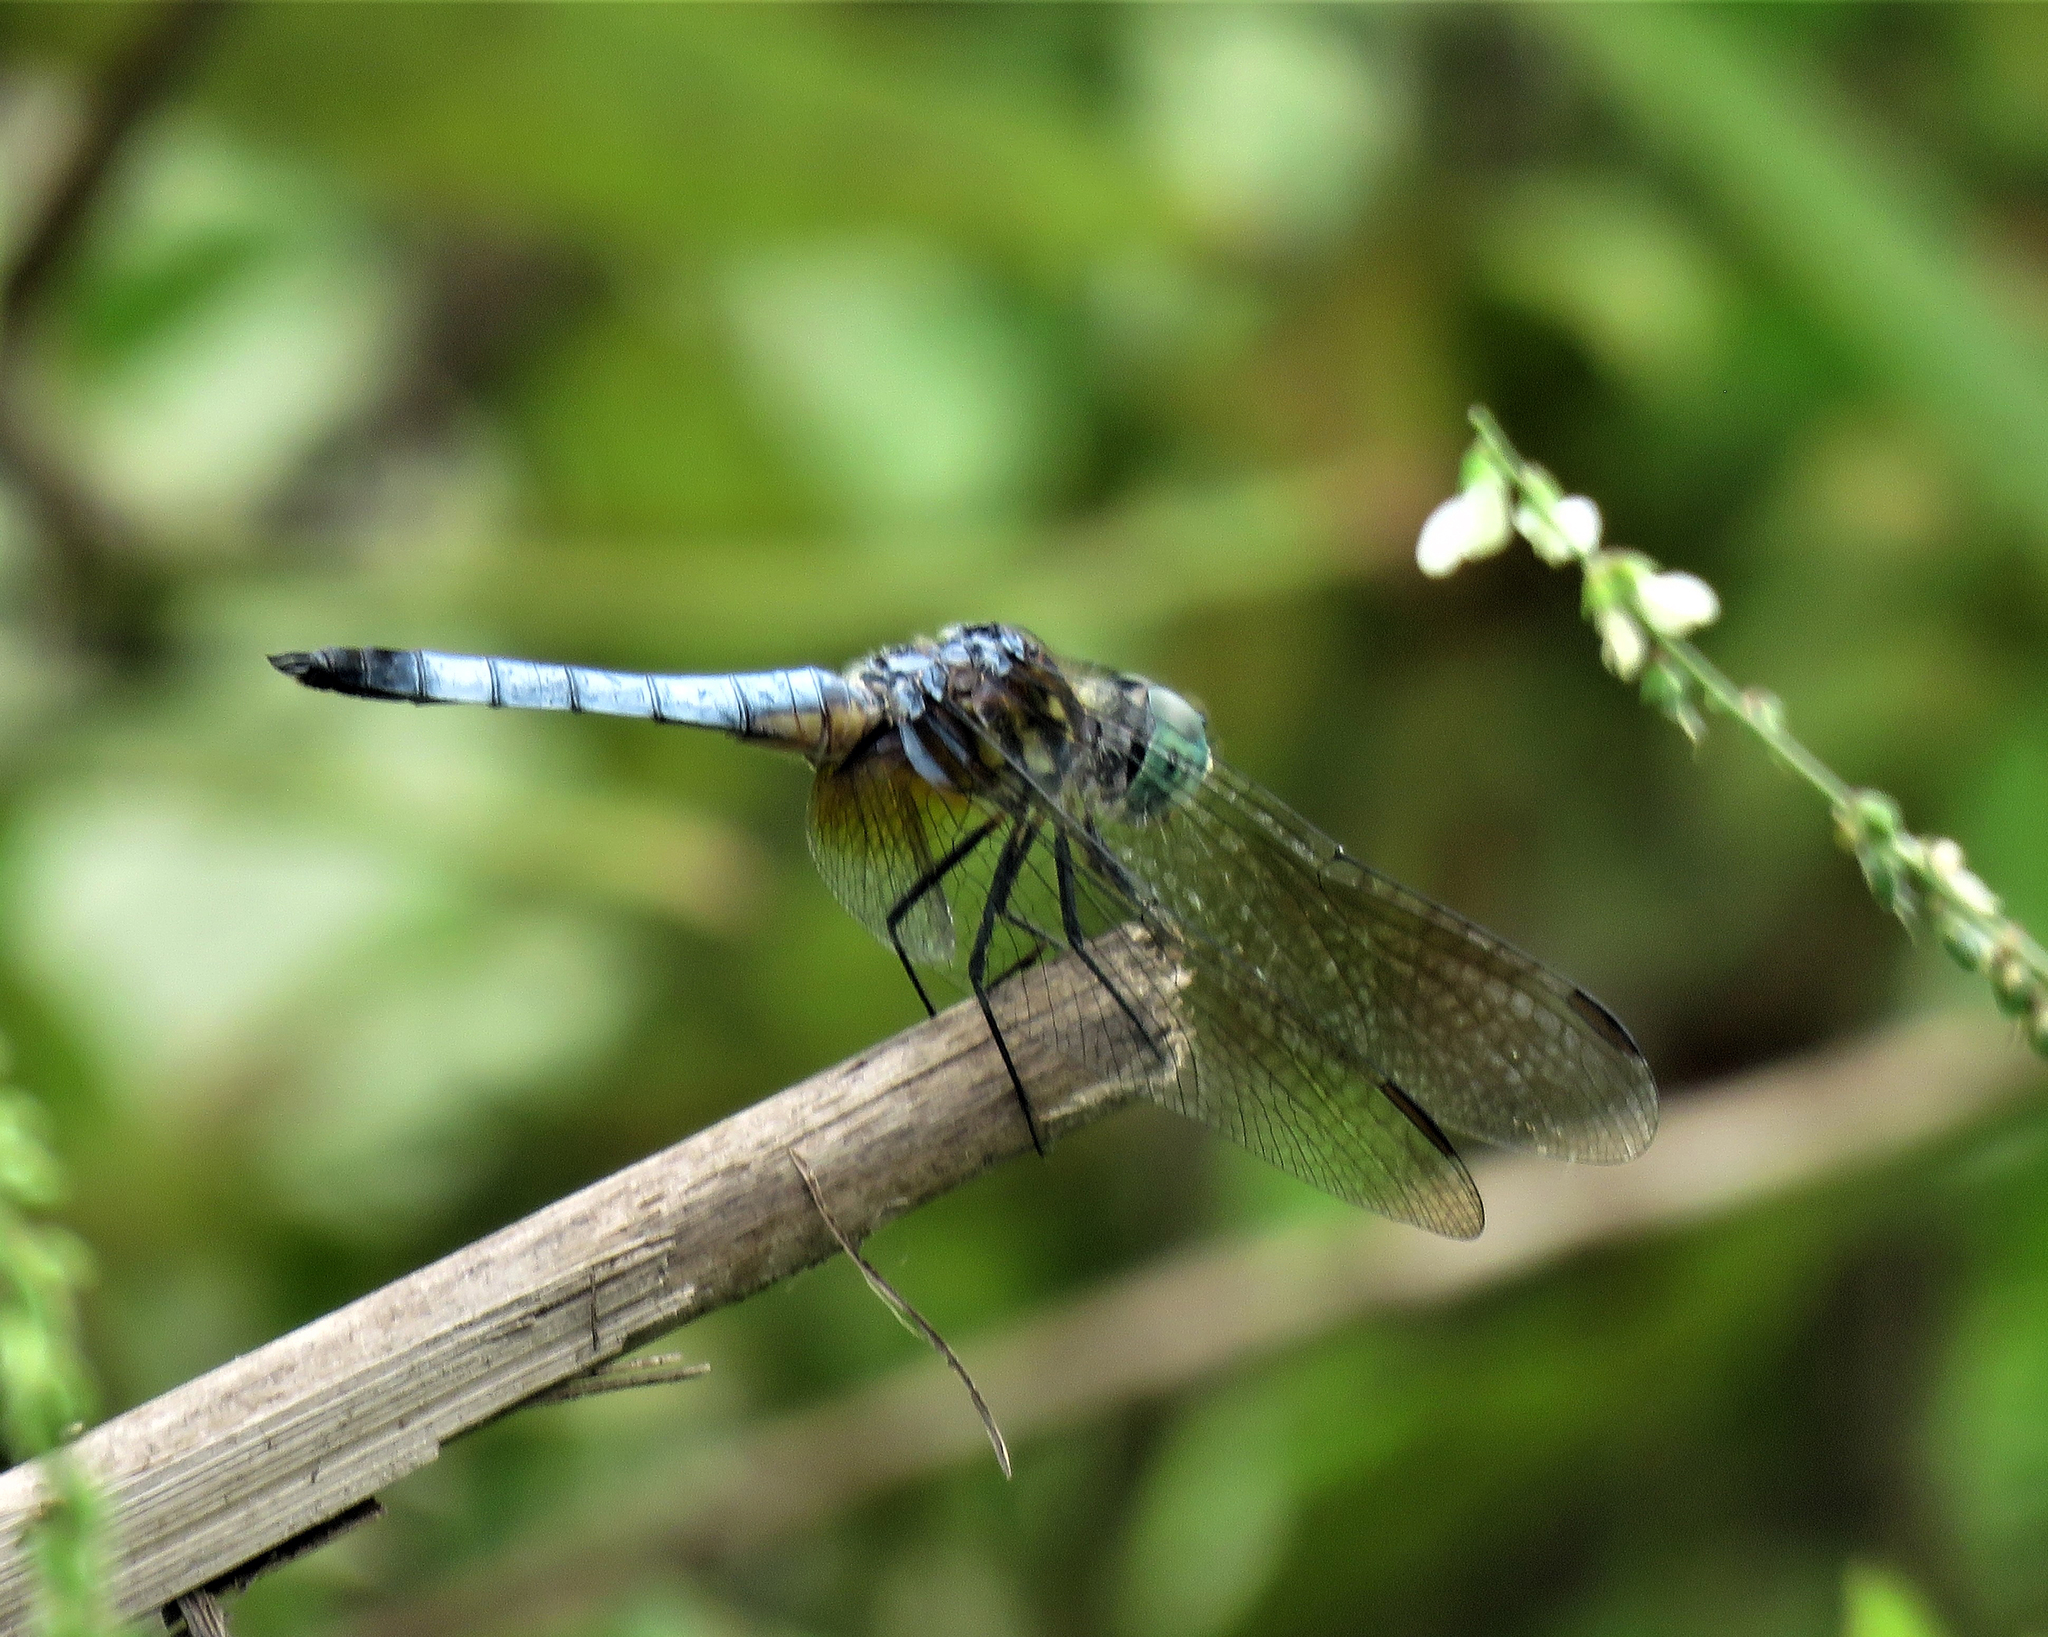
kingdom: Animalia
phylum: Arthropoda
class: Insecta
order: Odonata
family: Libellulidae
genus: Pachydiplax
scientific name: Pachydiplax longipennis
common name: Blue dasher
